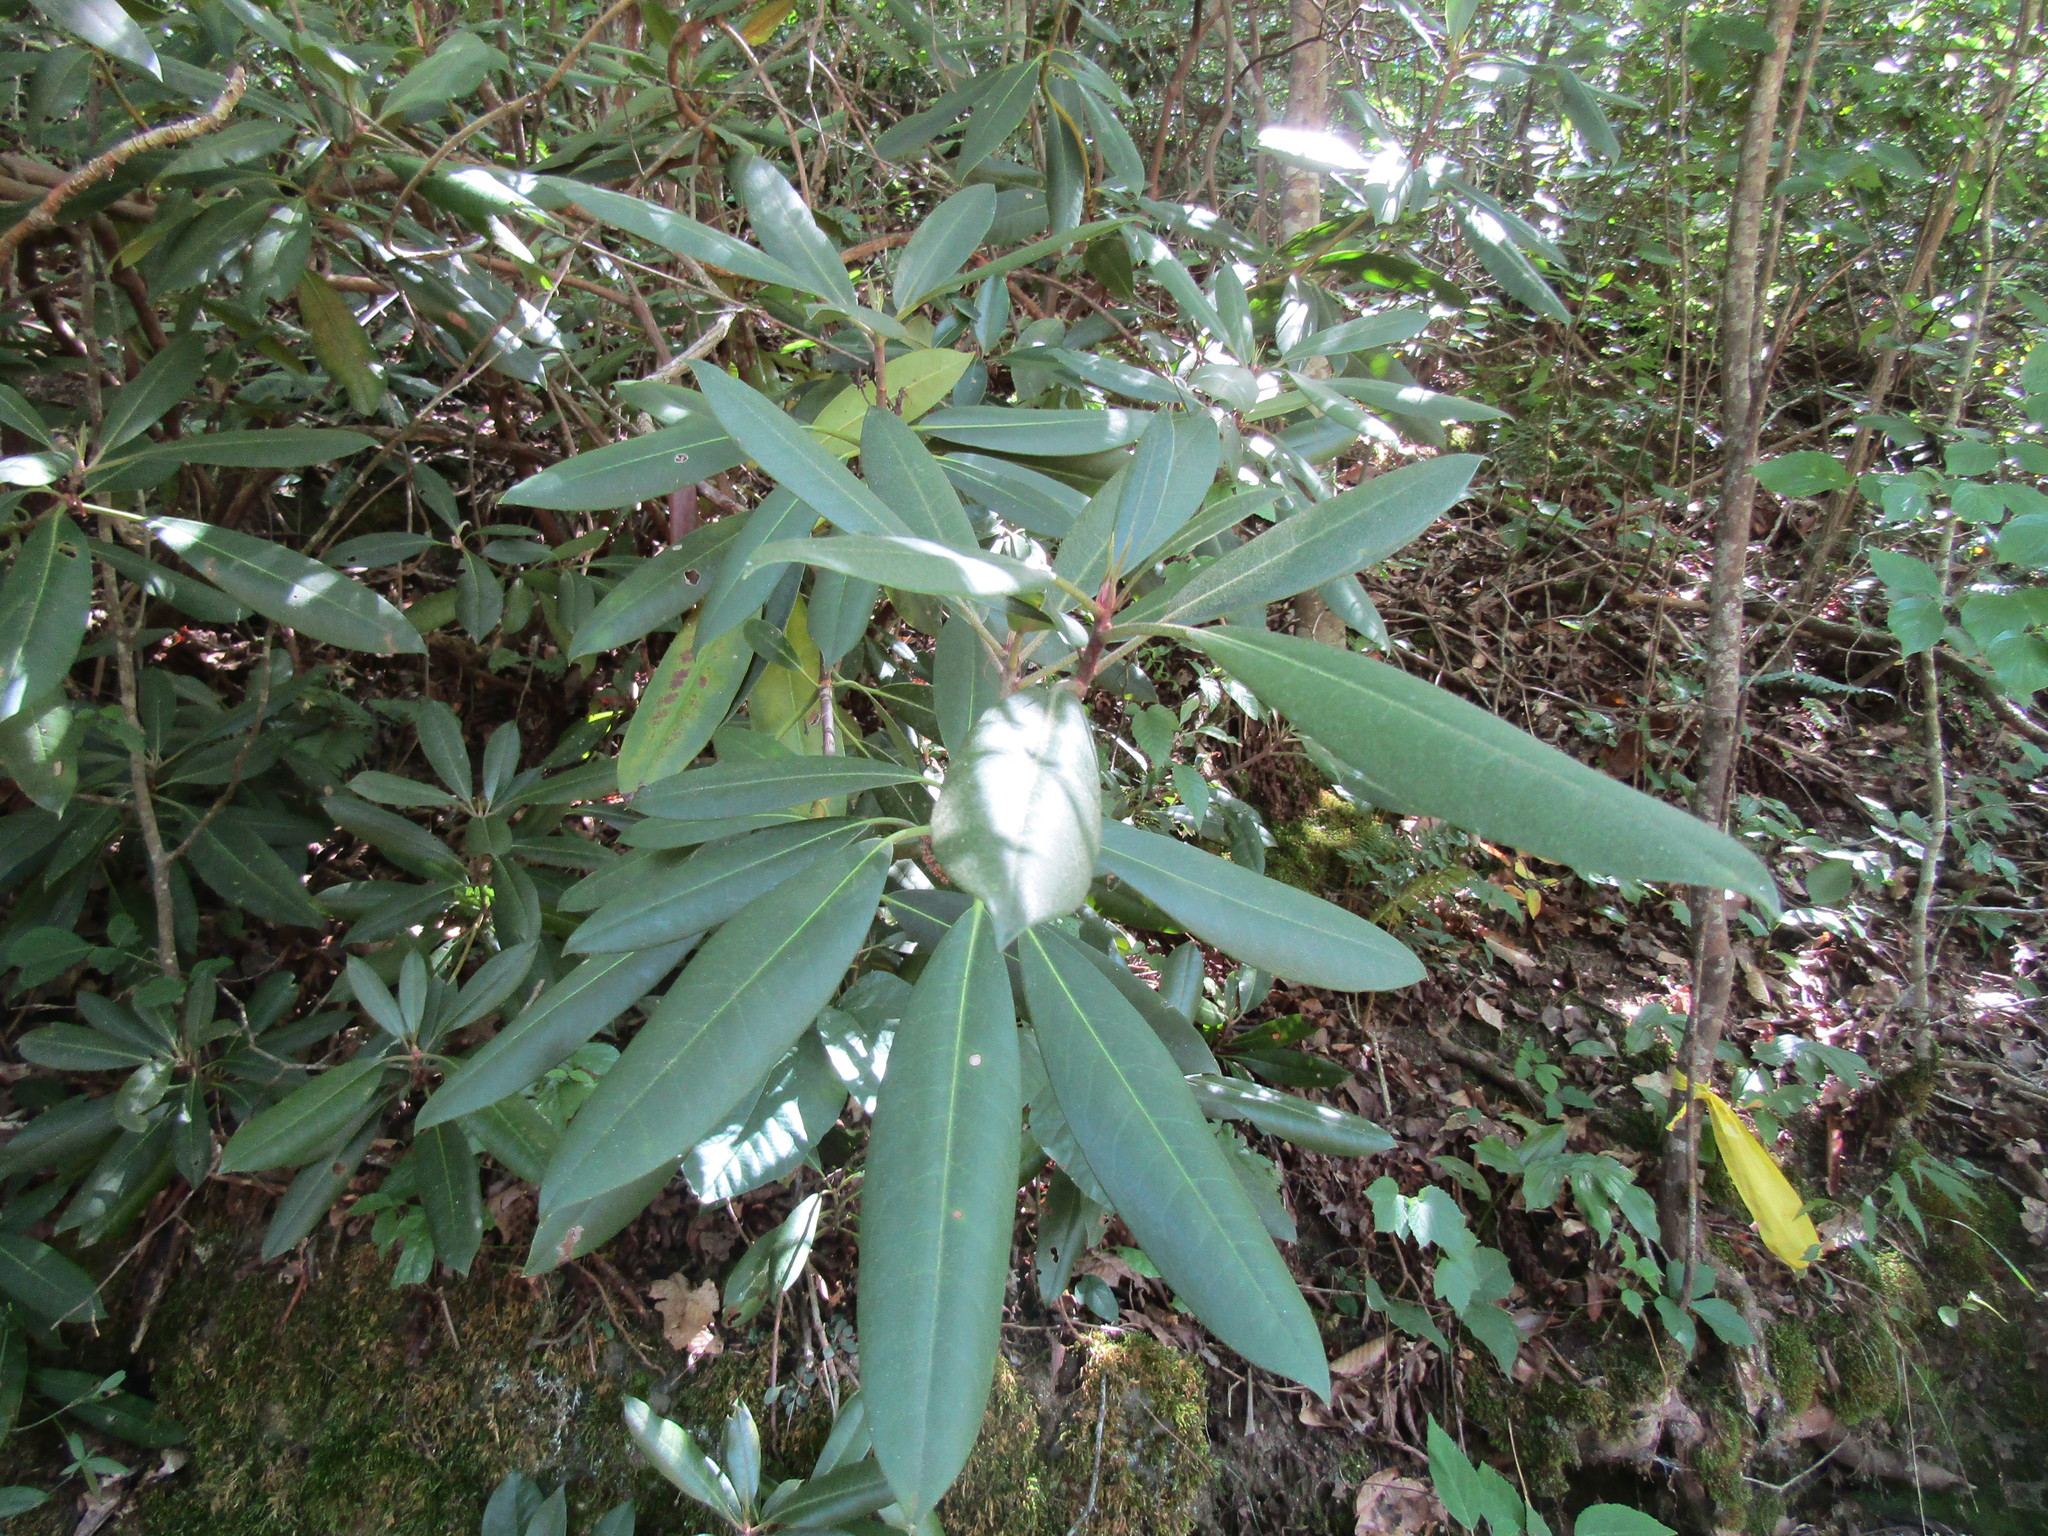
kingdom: Plantae
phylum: Tracheophyta
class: Magnoliopsida
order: Ericales
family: Ericaceae
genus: Rhododendron
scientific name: Rhododendron maximum
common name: Great rhododendron
